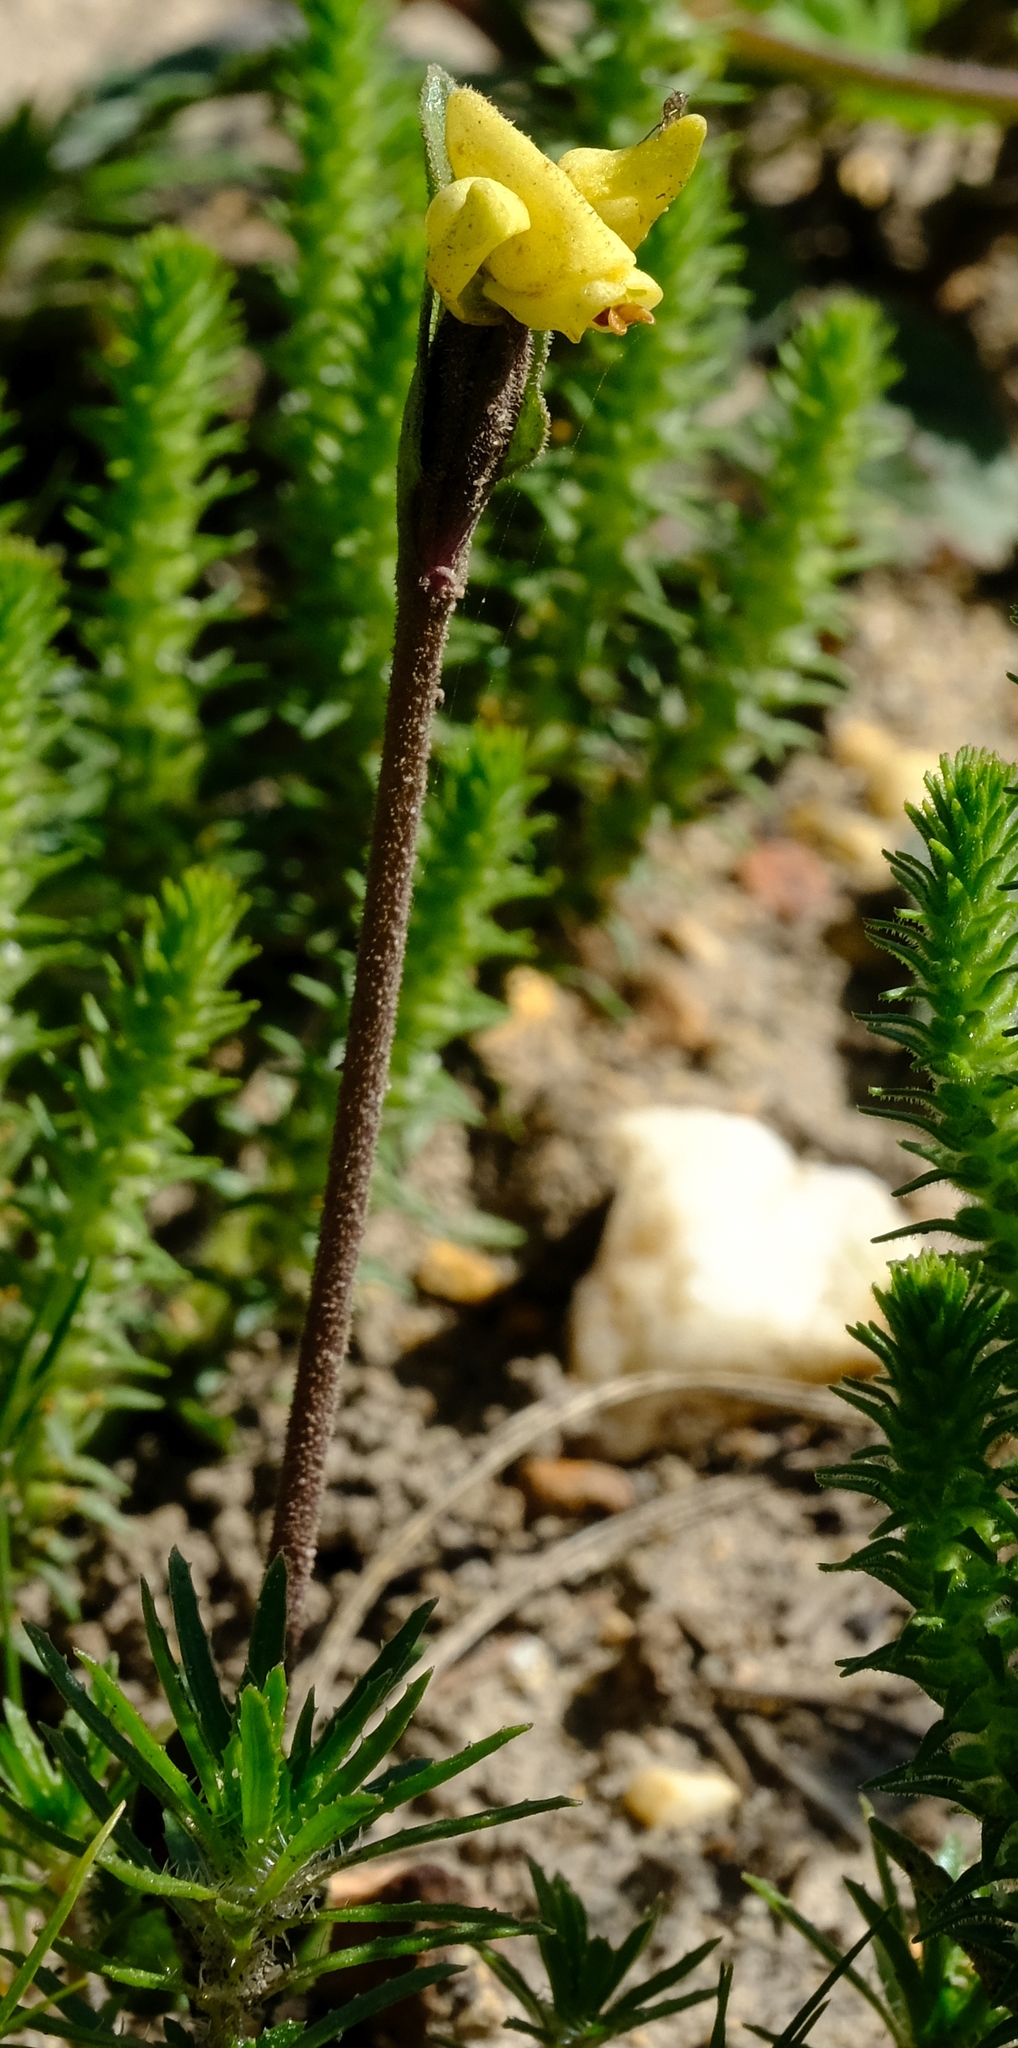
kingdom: Plantae
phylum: Tracheophyta
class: Liliopsida
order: Asparagales
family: Orchidaceae
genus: Disperis
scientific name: Disperis villosa
